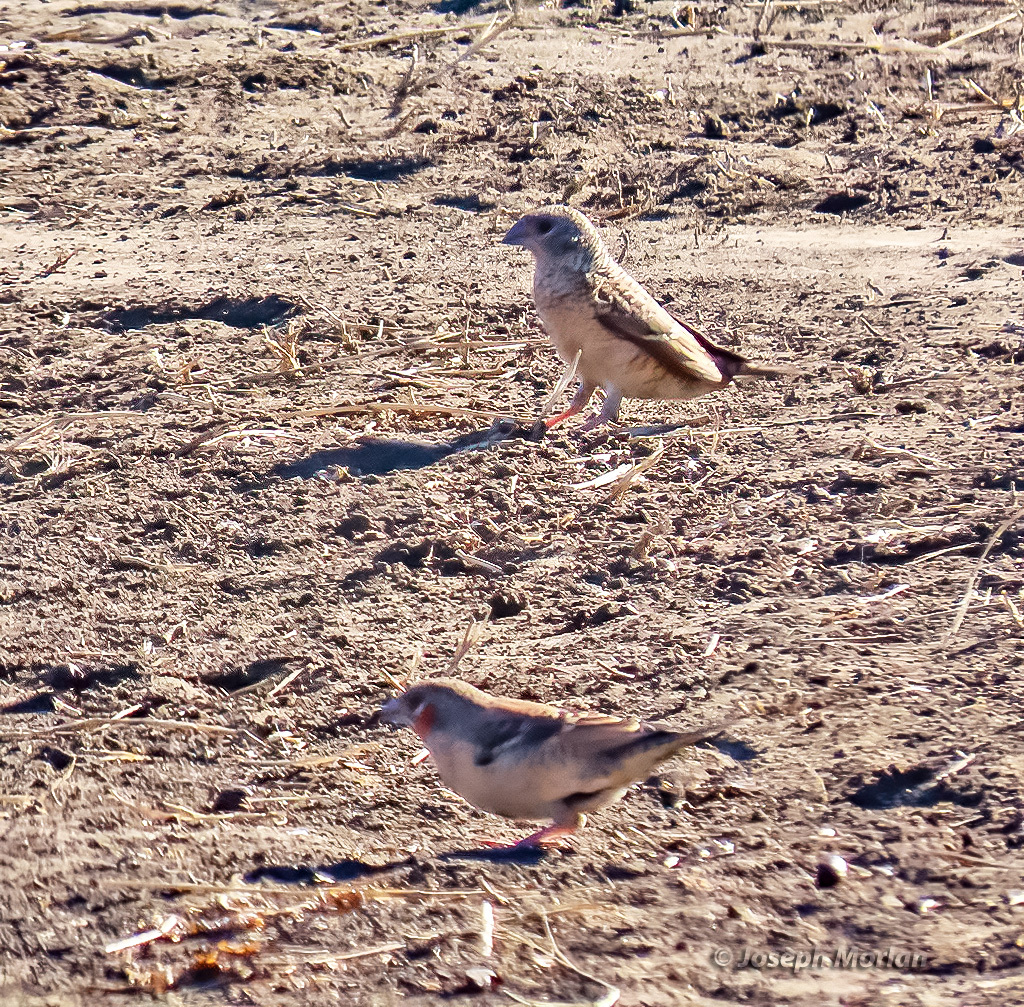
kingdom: Animalia
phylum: Chordata
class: Aves
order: Passeriformes
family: Estrildidae
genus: Amadina
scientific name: Amadina fasciata
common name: Cut-throat finch
